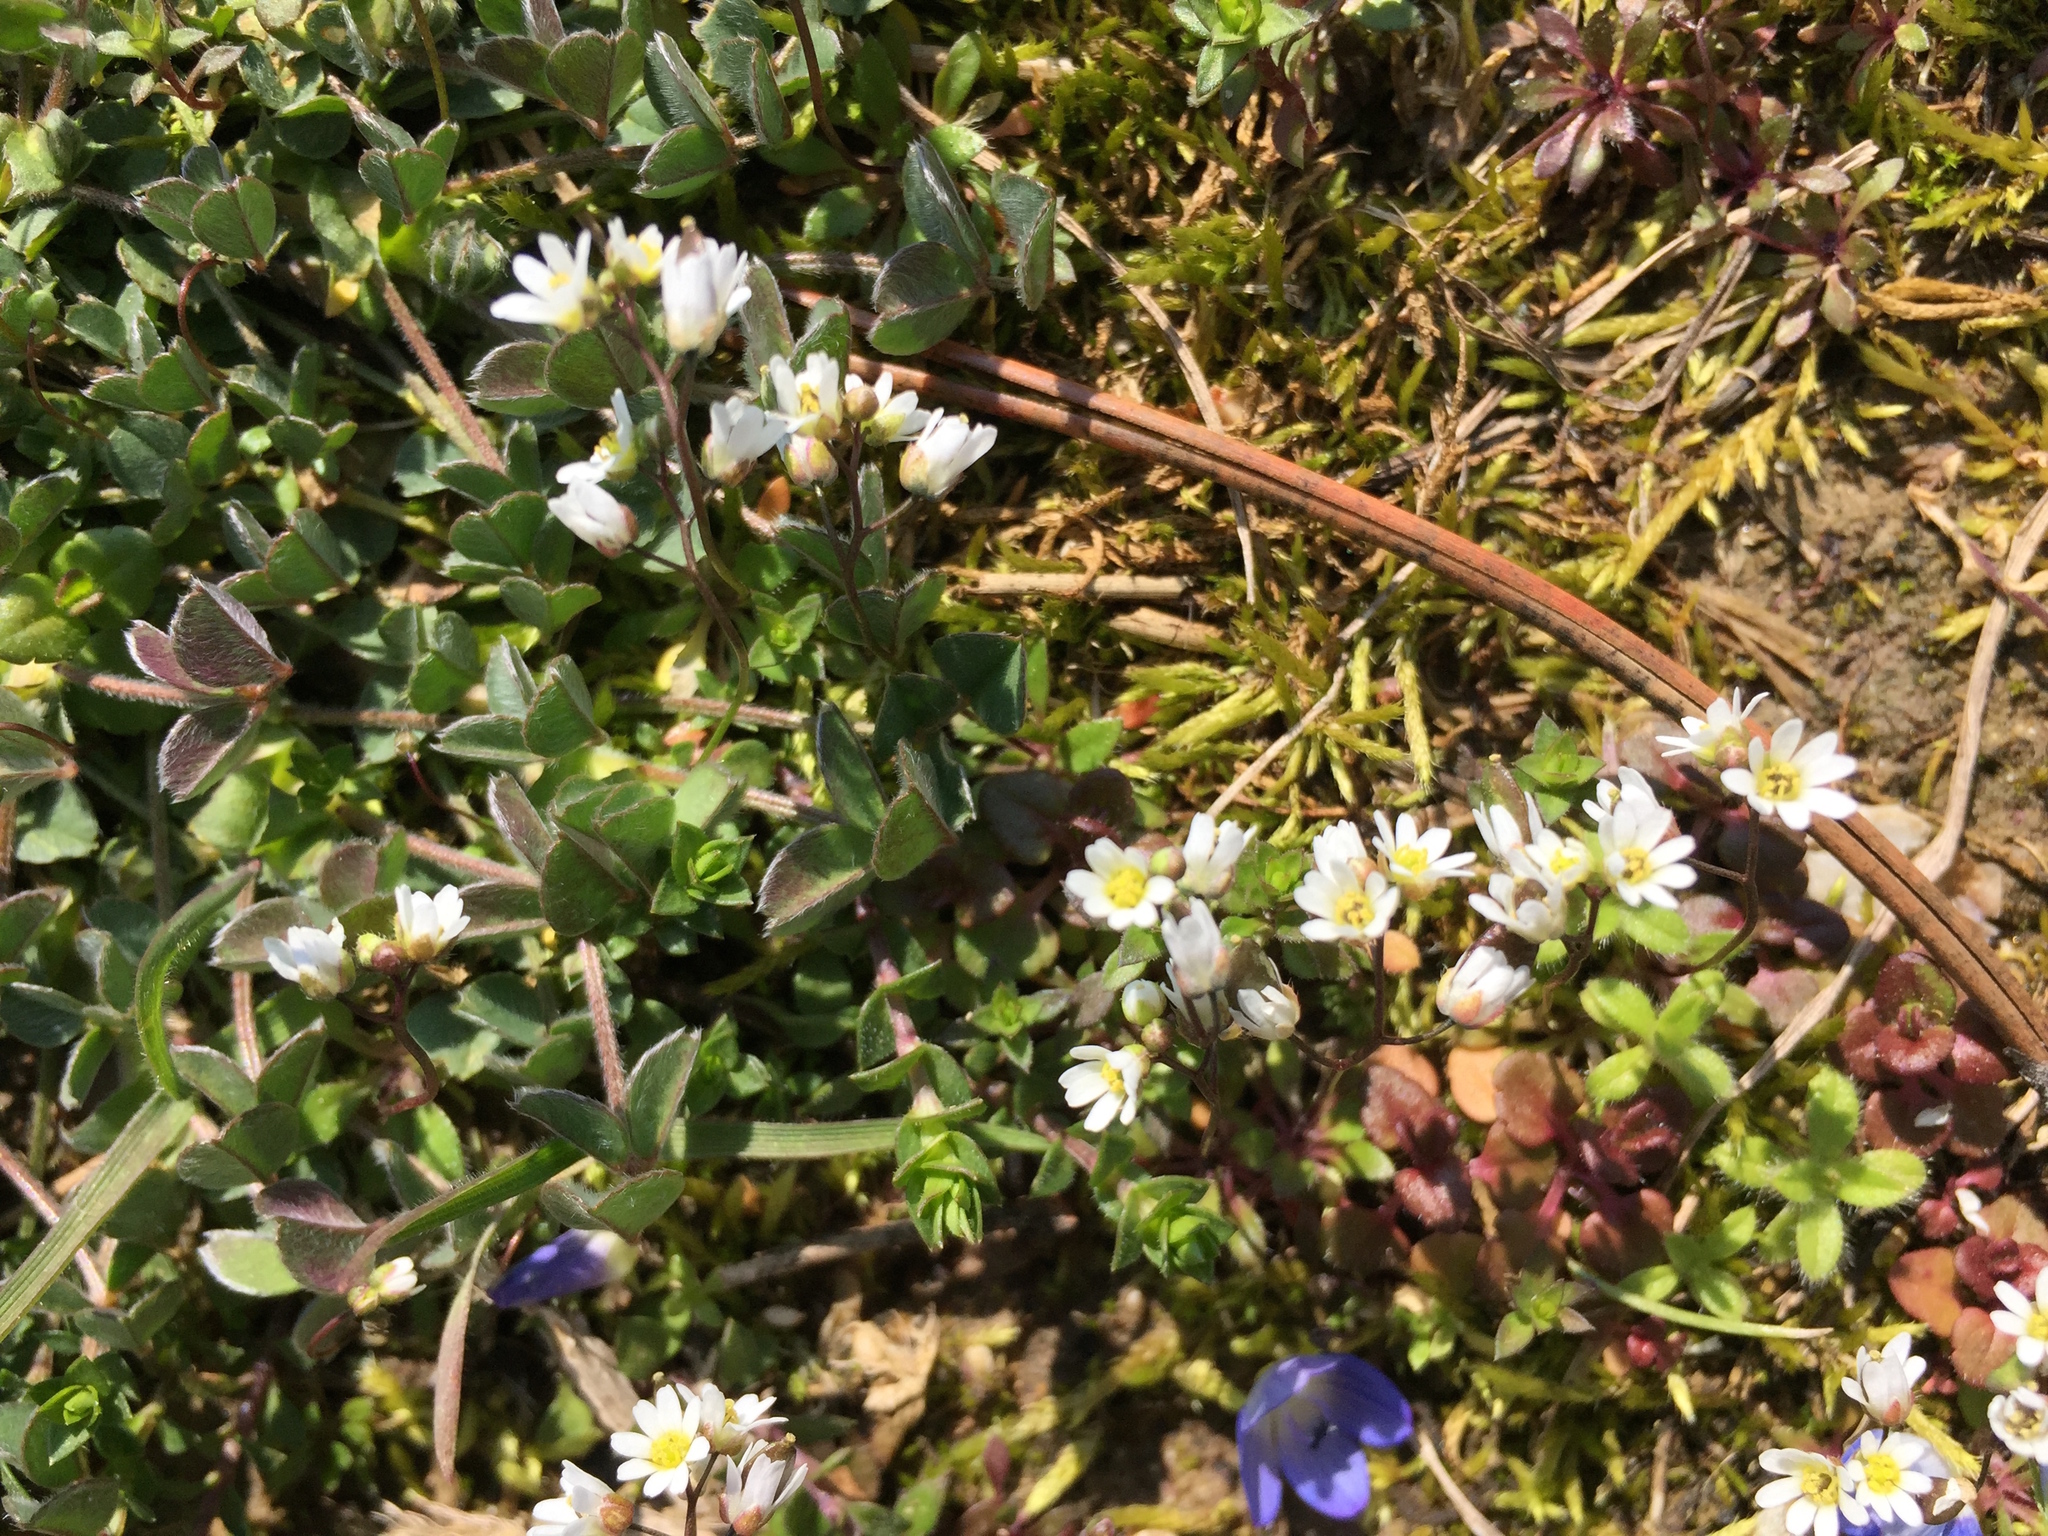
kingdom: Plantae
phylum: Tracheophyta
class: Magnoliopsida
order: Brassicales
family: Brassicaceae
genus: Draba
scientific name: Draba verna
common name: Spring draba
